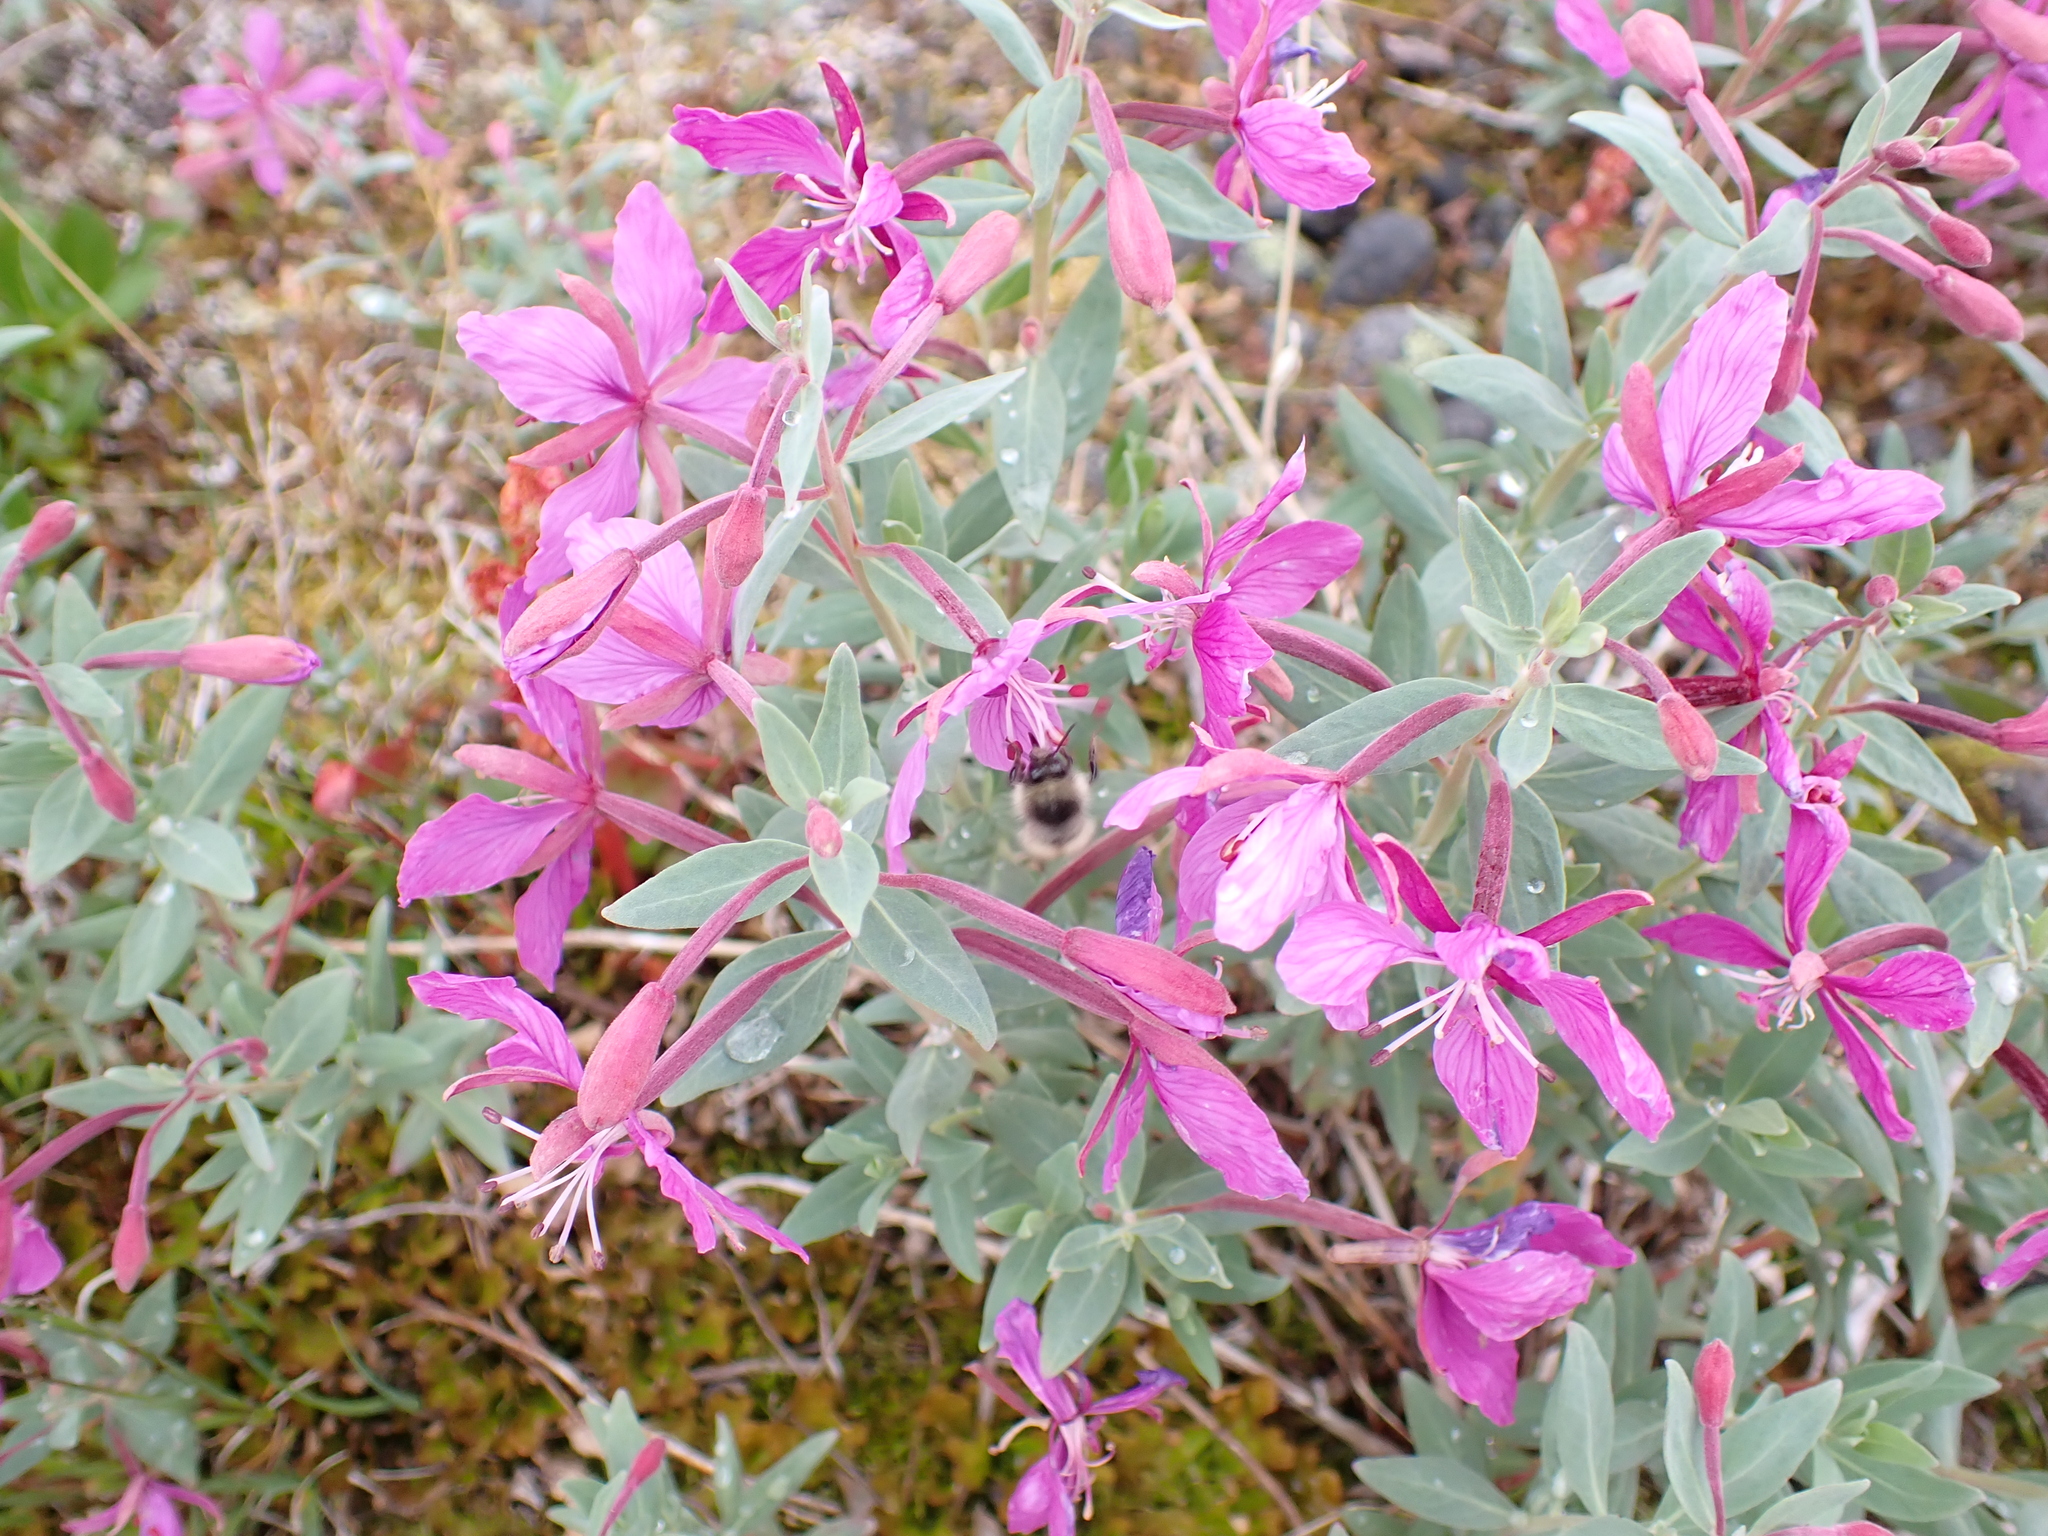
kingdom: Animalia
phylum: Arthropoda
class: Insecta
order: Hymenoptera
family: Apidae
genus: Bombus
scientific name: Bombus flavifrons
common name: Yellow head bumble bee
